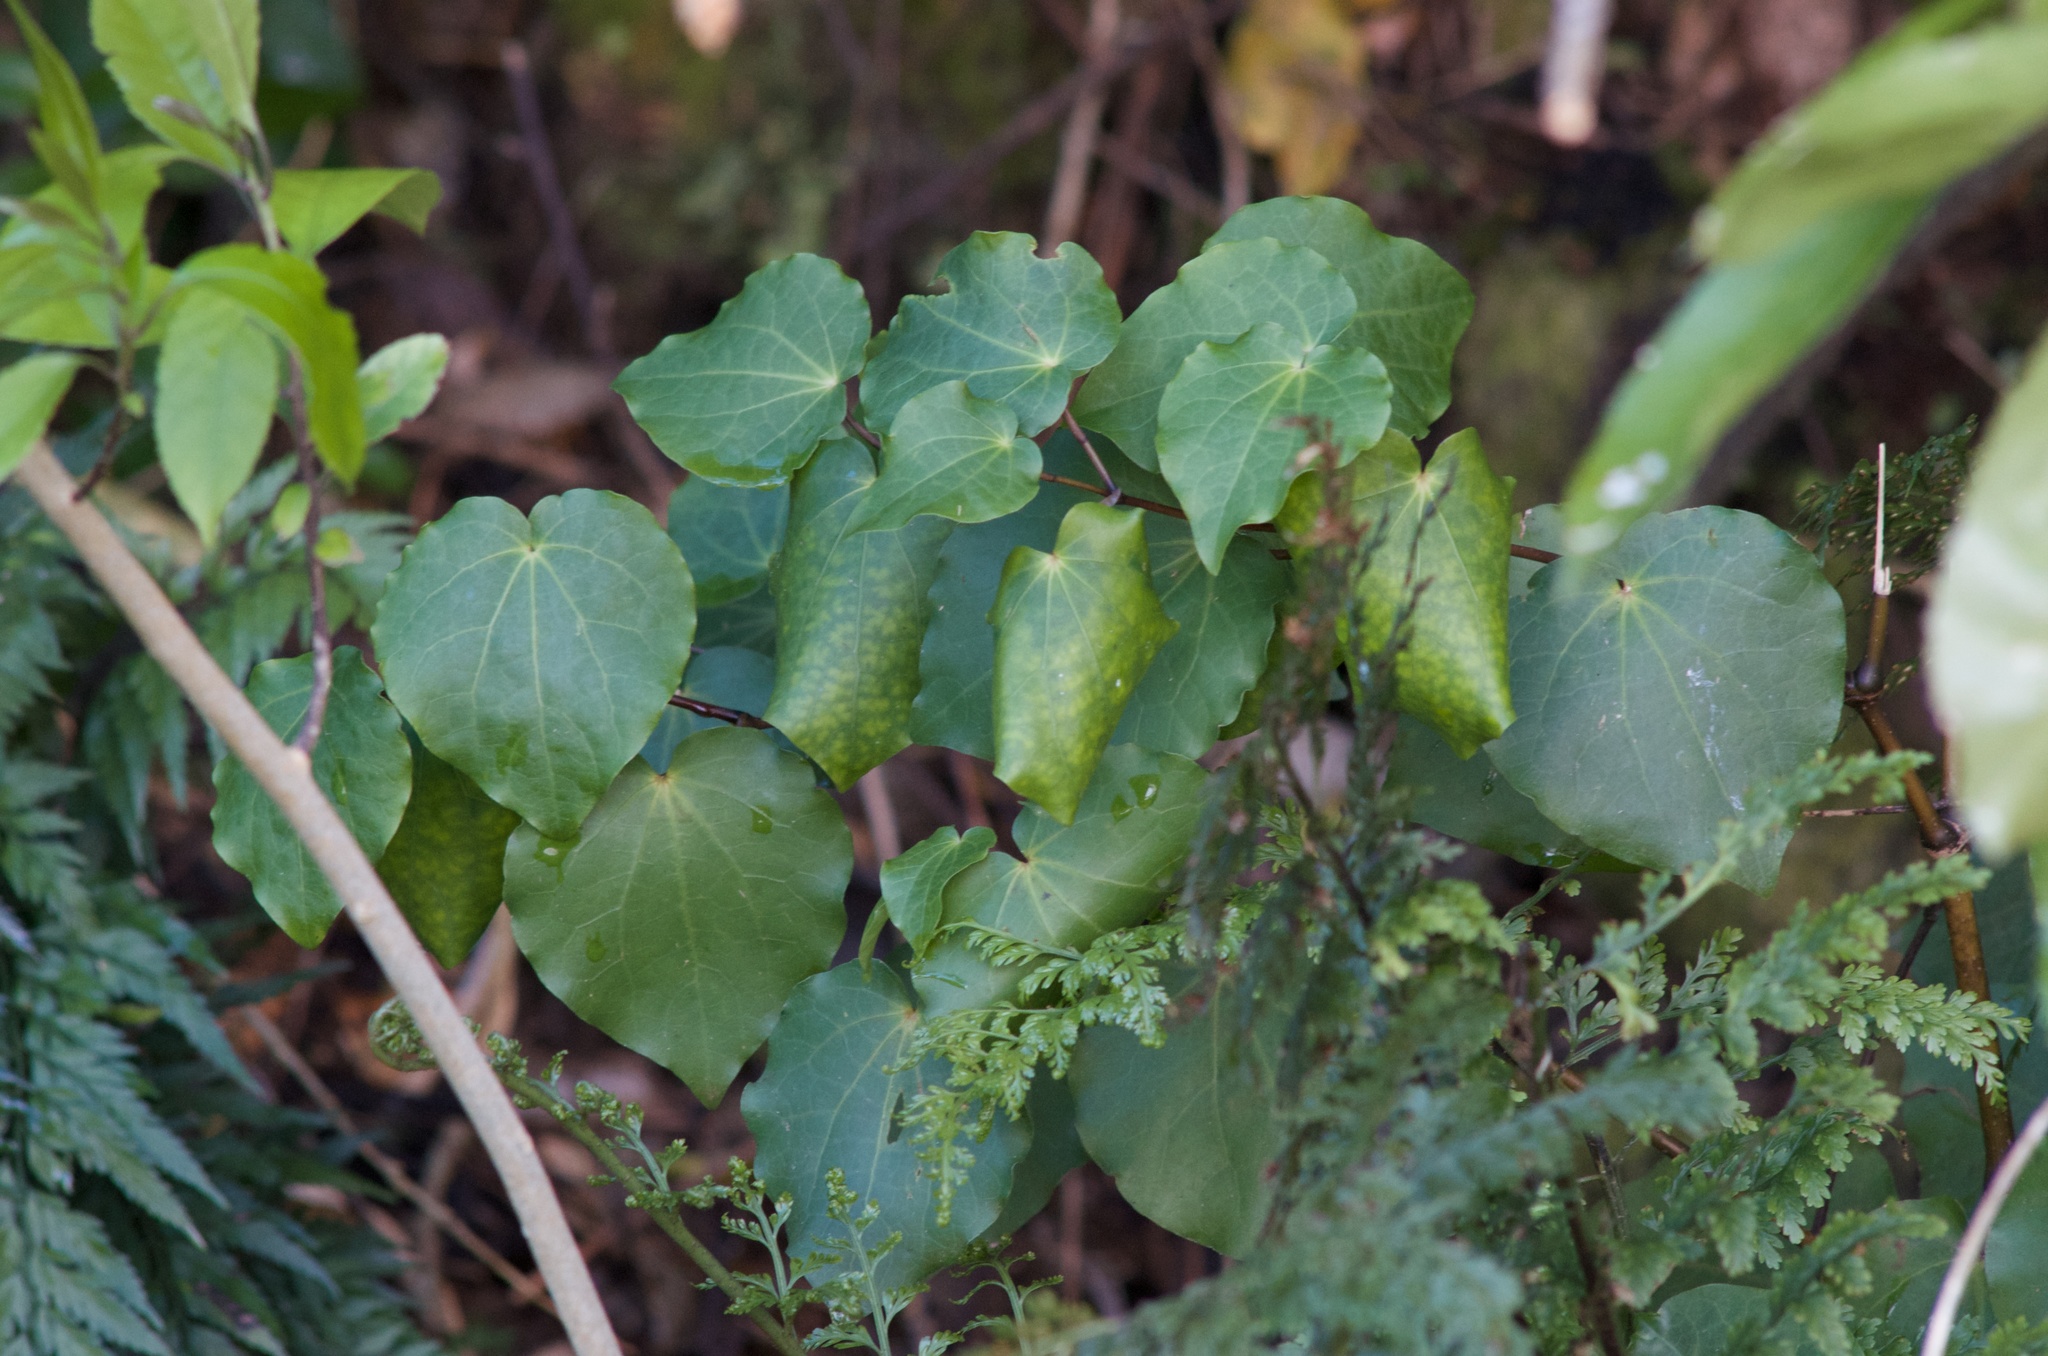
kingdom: Plantae
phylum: Tracheophyta
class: Magnoliopsida
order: Piperales
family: Piperaceae
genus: Macropiper
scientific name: Macropiper excelsum
